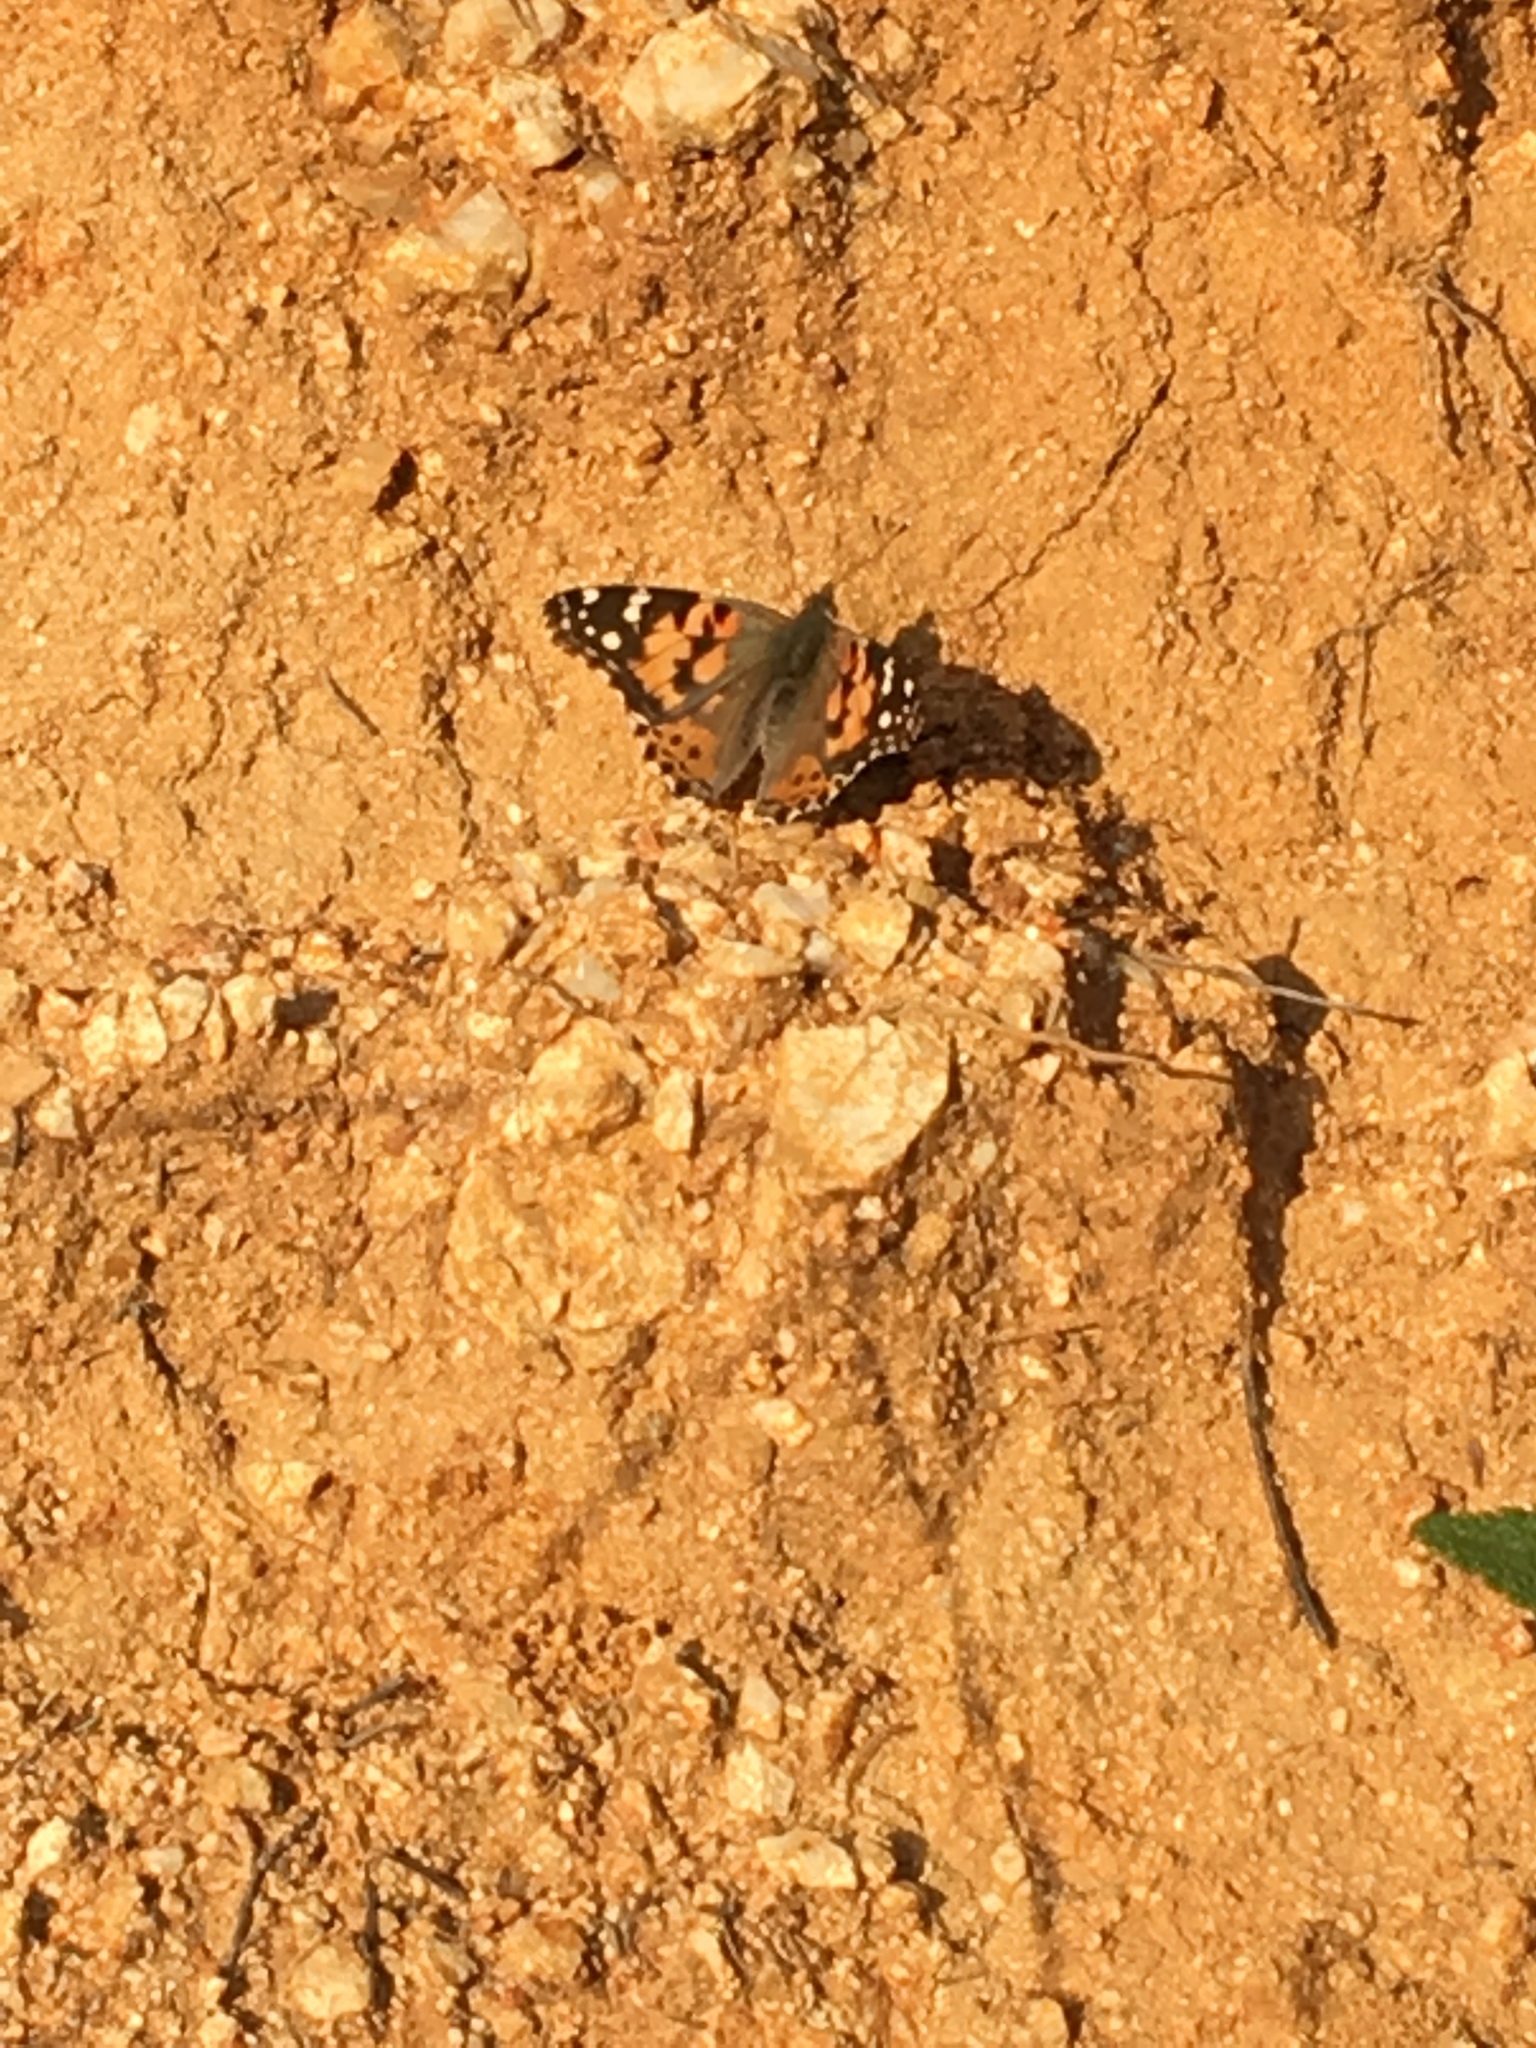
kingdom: Animalia
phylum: Arthropoda
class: Insecta
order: Lepidoptera
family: Nymphalidae
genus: Vanessa
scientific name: Vanessa cardui
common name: Painted lady
